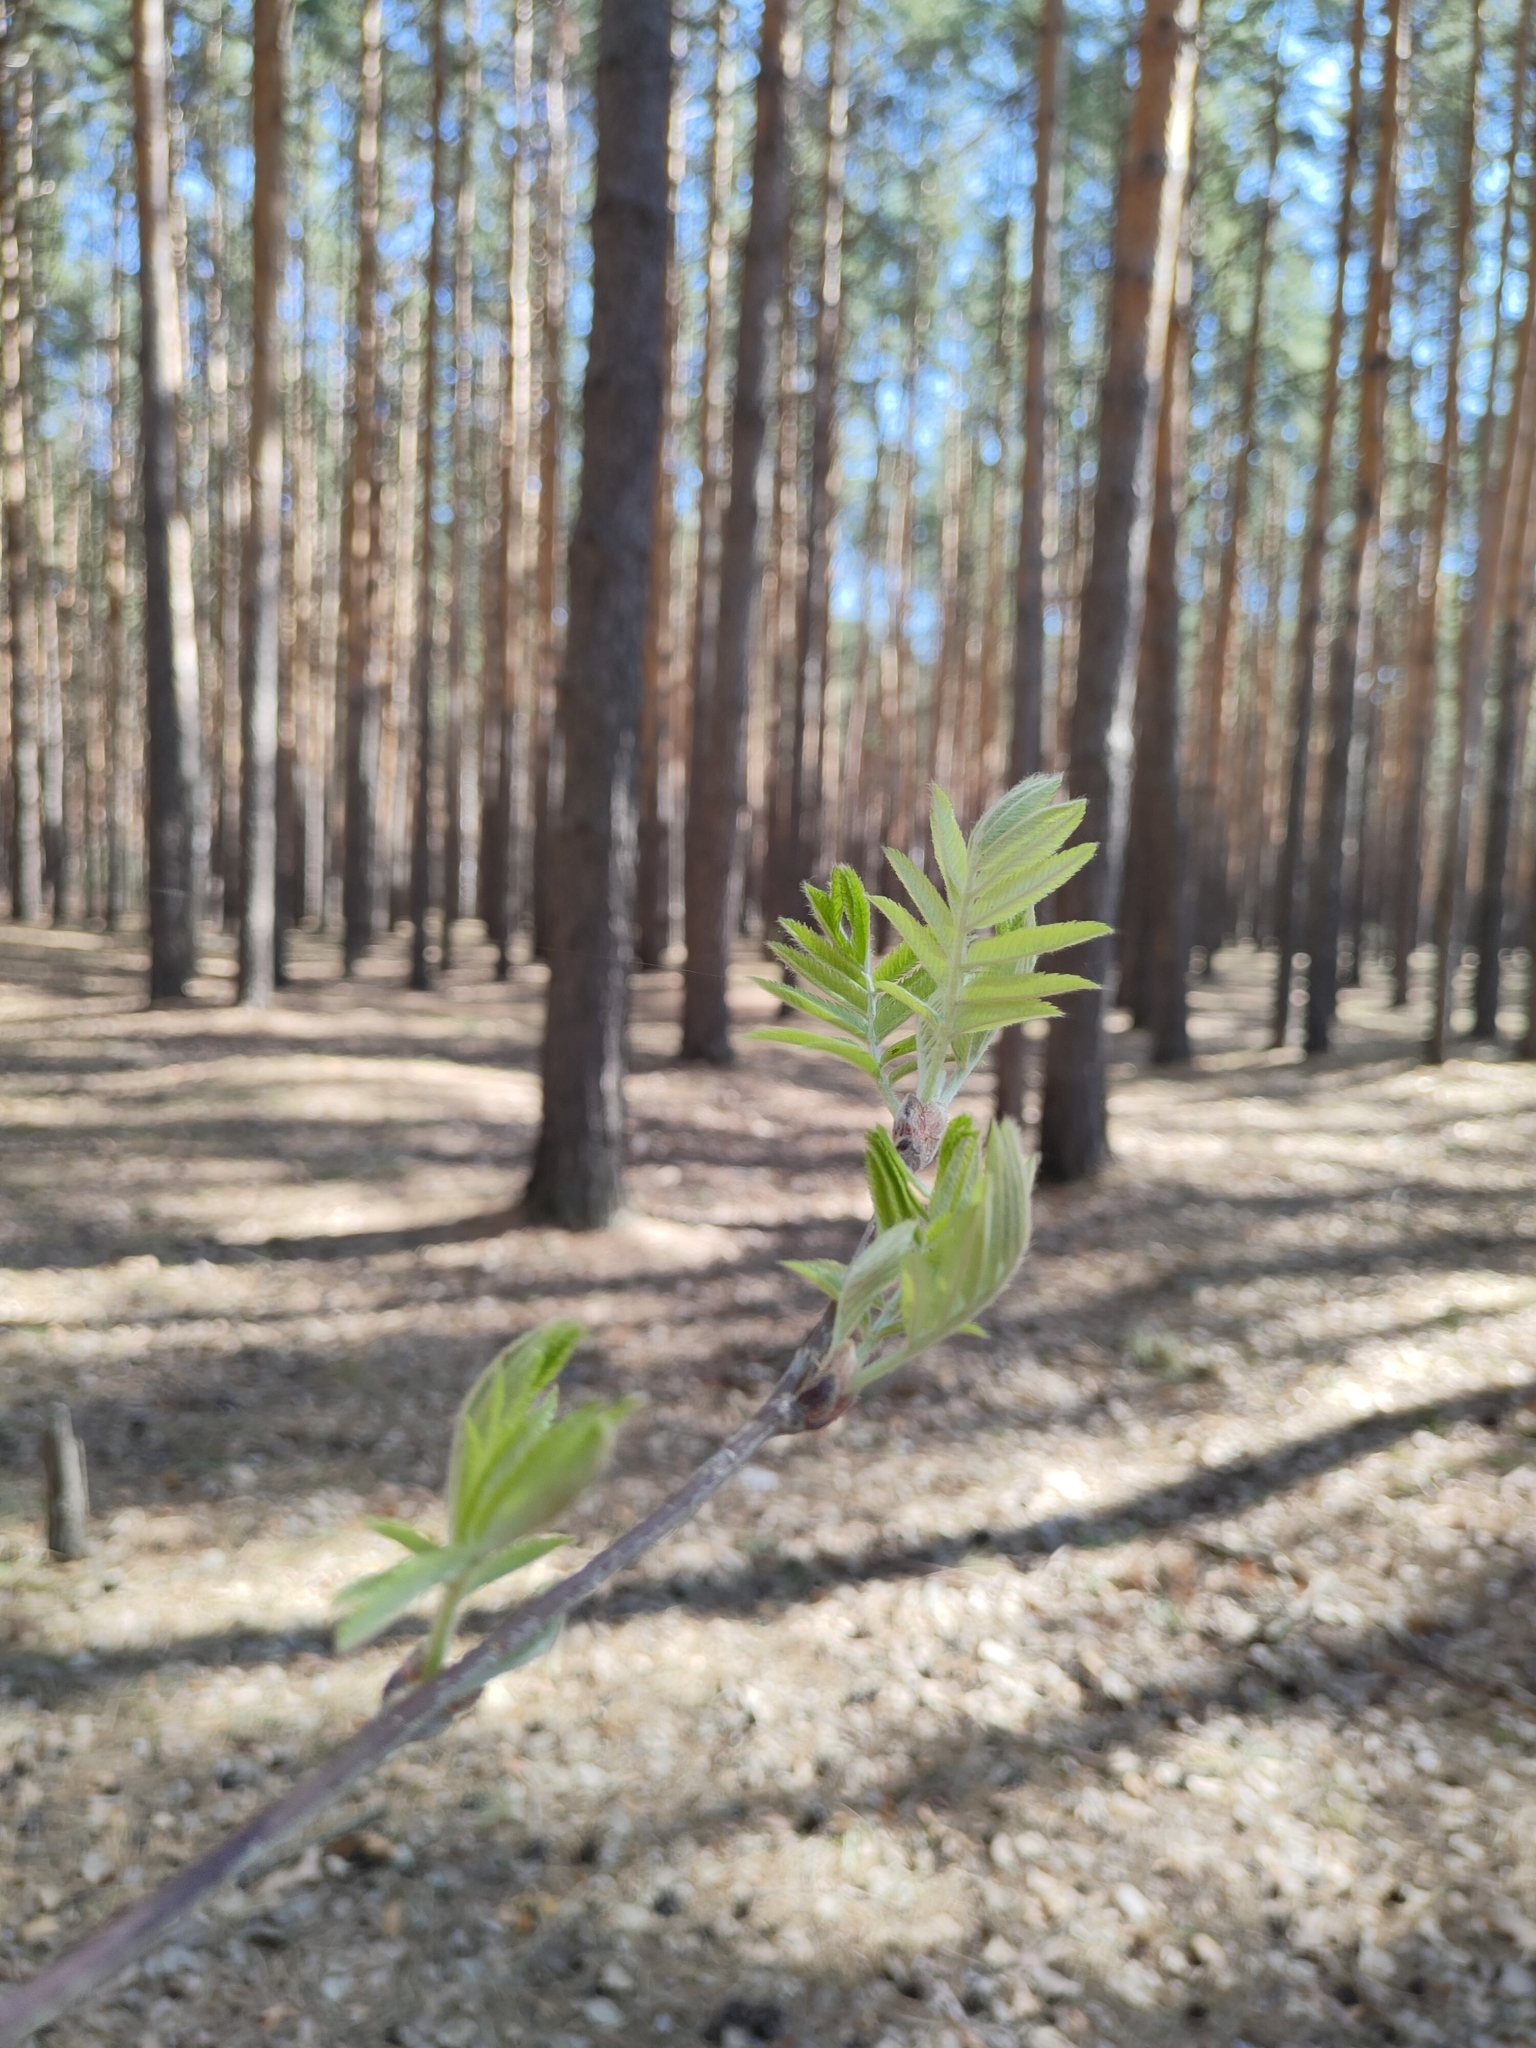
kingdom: Plantae
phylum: Tracheophyta
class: Magnoliopsida
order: Rosales
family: Rosaceae
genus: Sorbus
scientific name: Sorbus aucuparia
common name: Rowan
